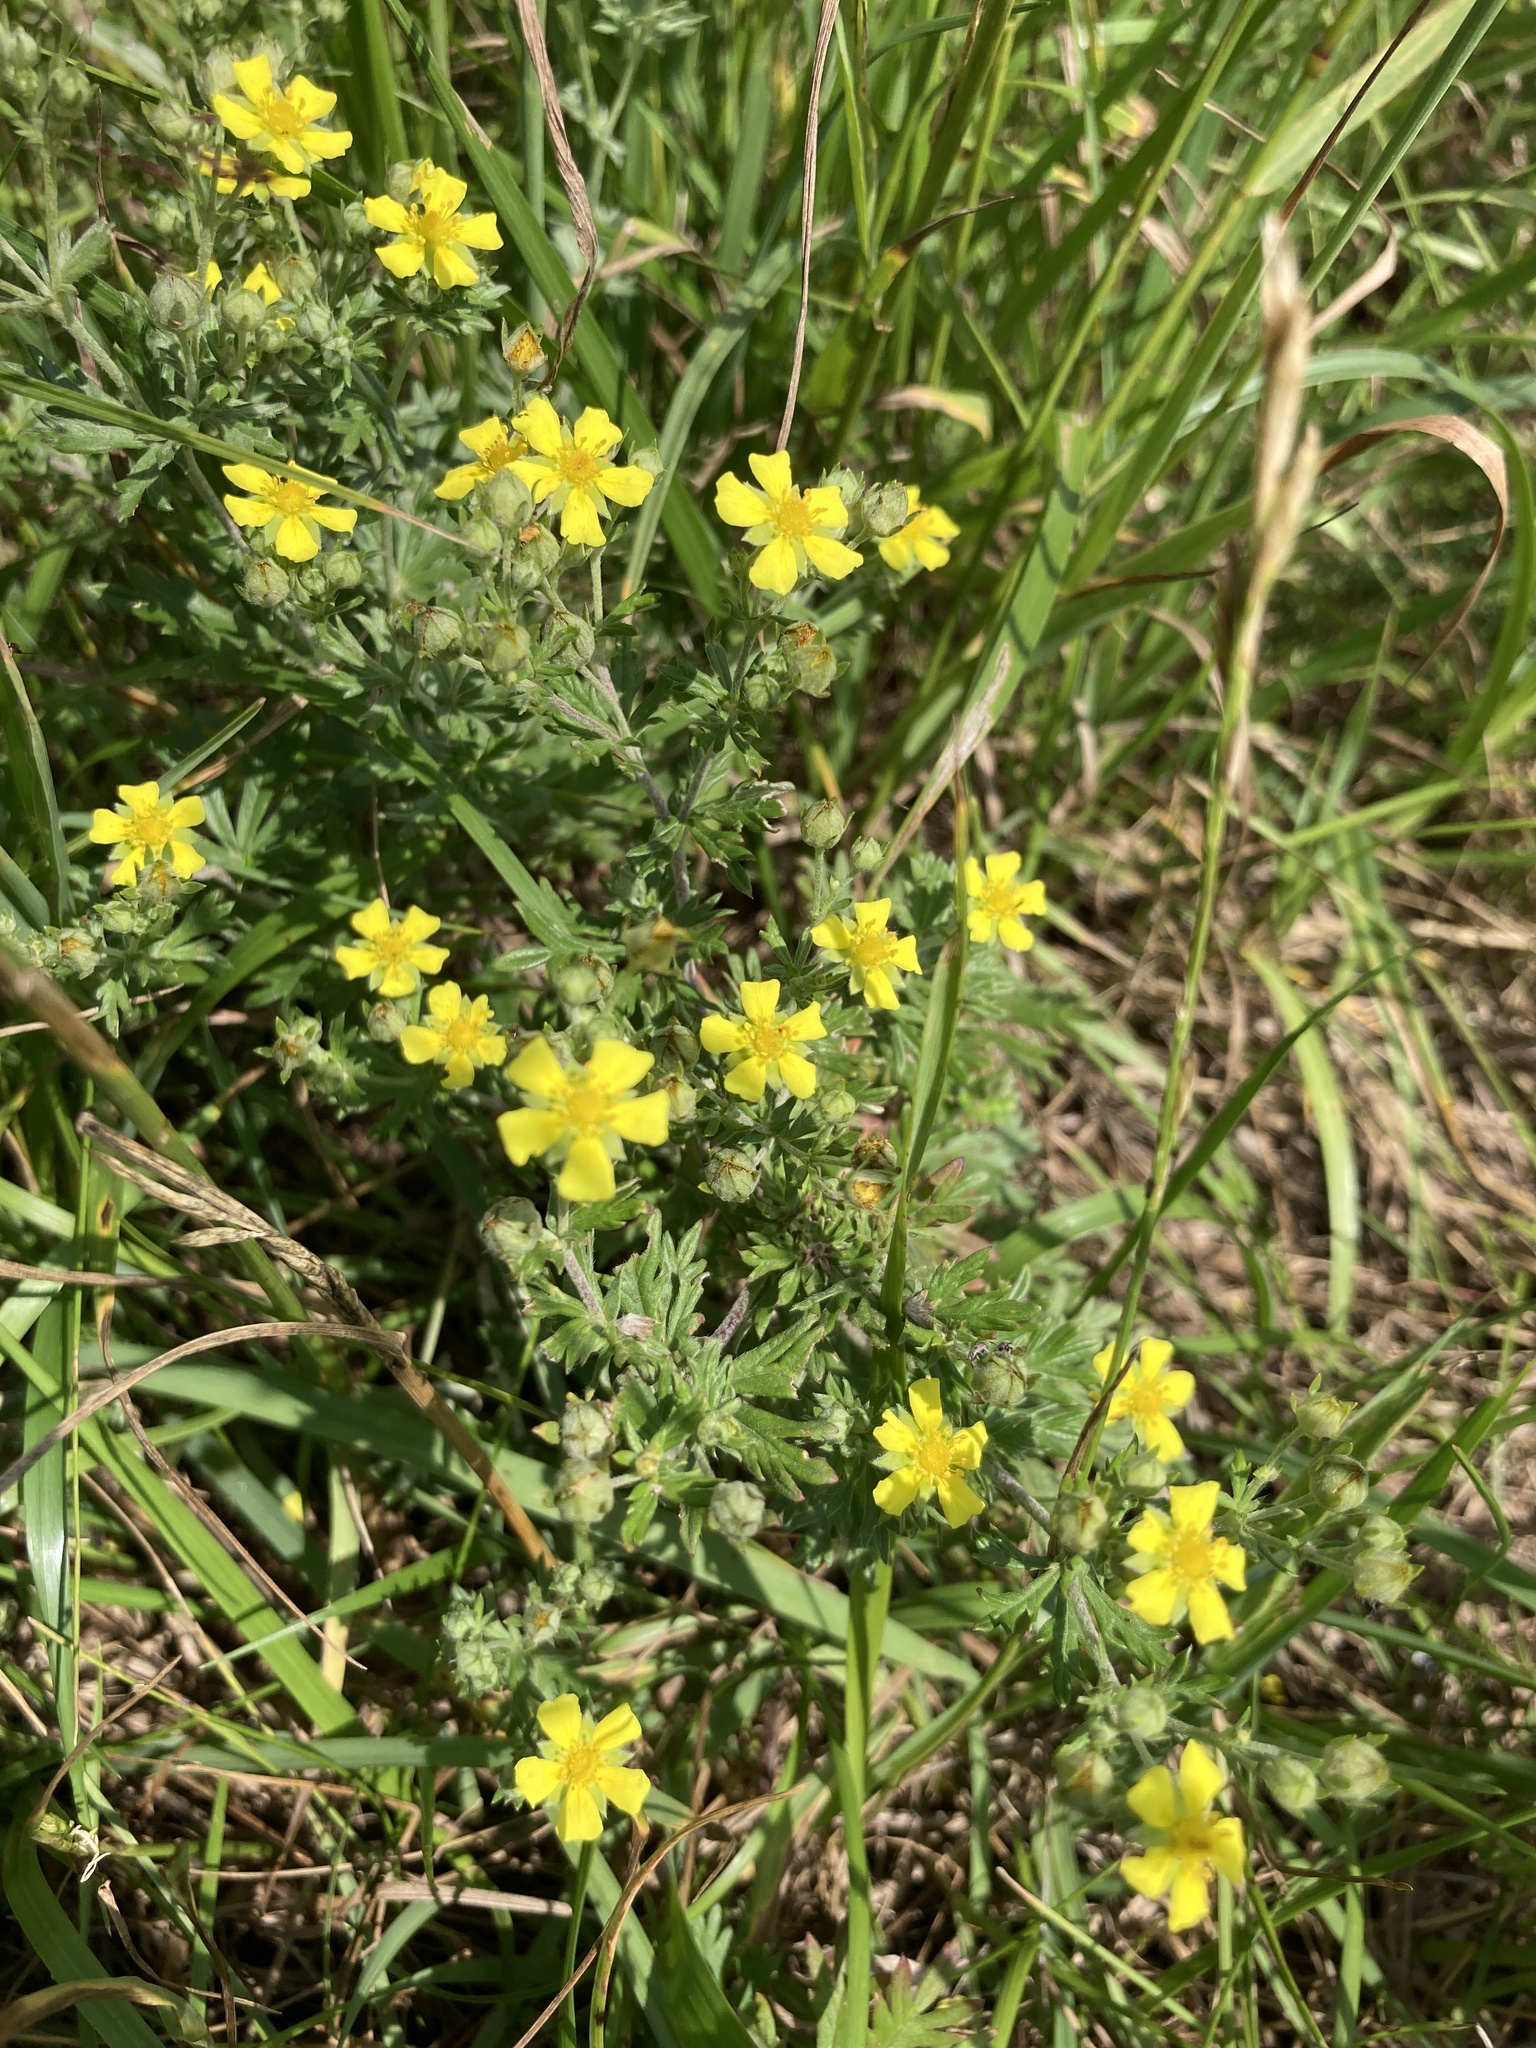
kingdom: Plantae
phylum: Tracheophyta
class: Magnoliopsida
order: Rosales
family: Rosaceae
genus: Potentilla
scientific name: Potentilla argentea
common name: Hoary cinquefoil
